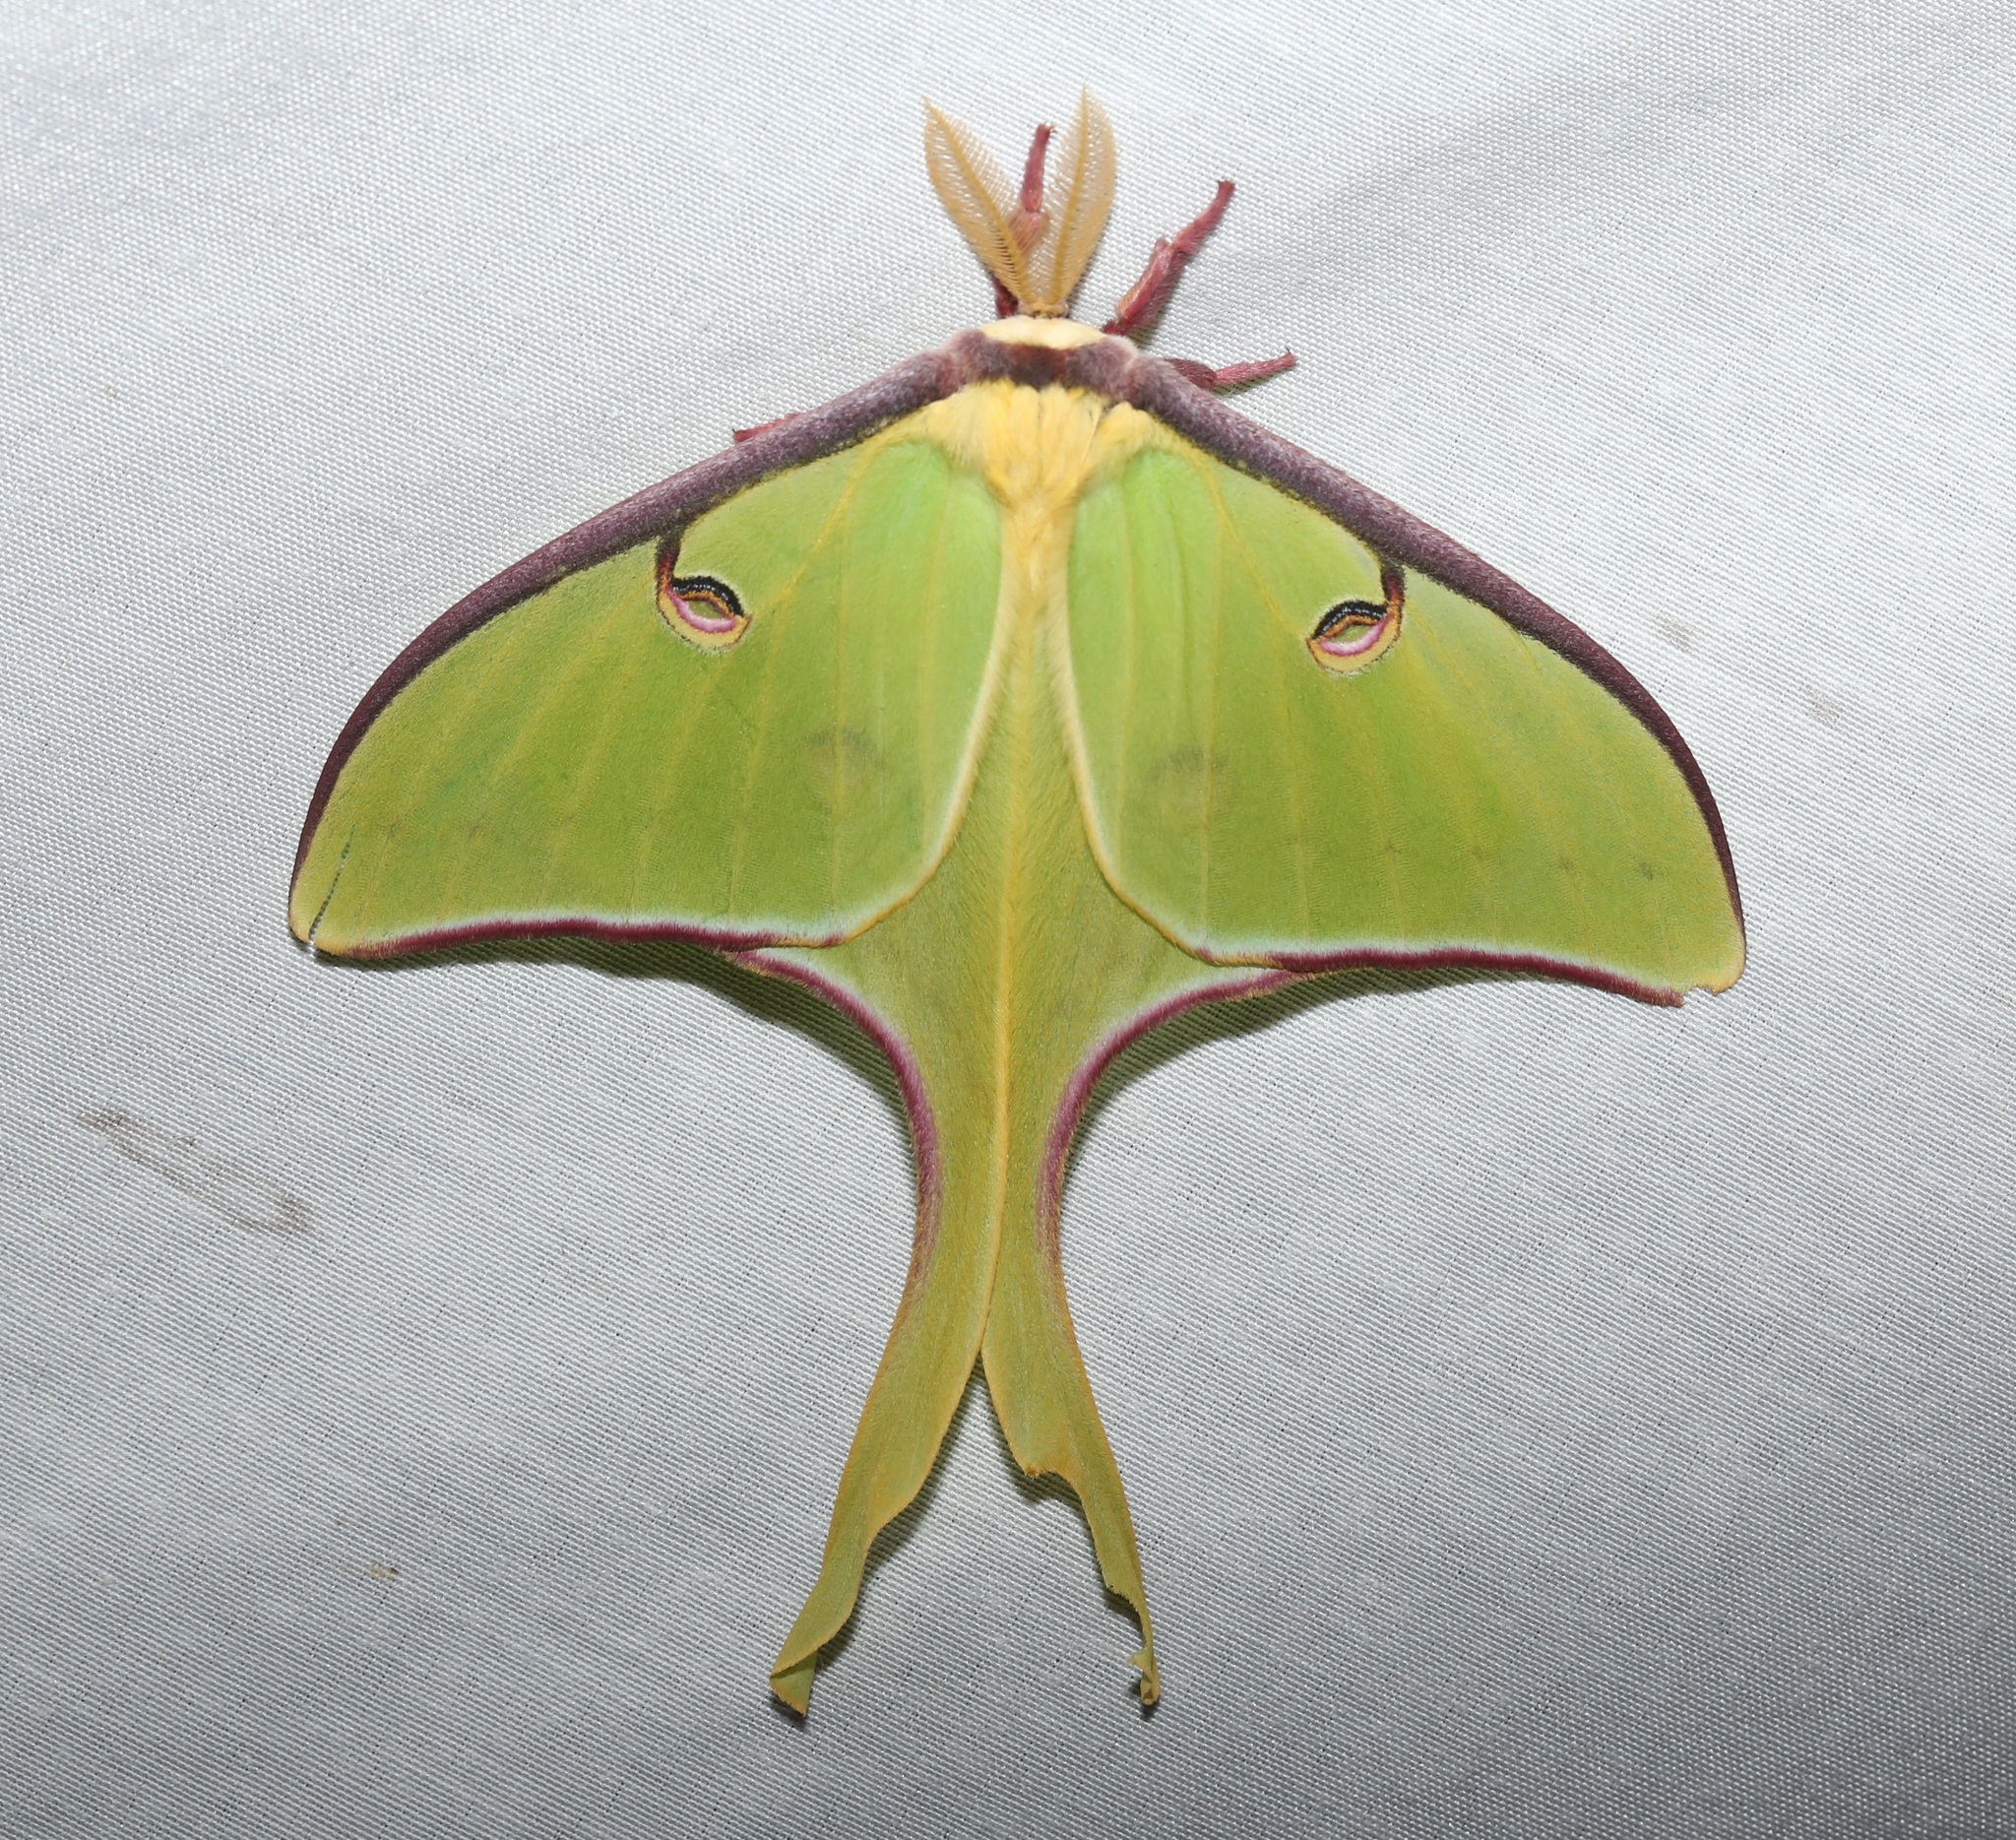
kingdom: Animalia
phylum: Arthropoda
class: Insecta
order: Lepidoptera
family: Saturniidae
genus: Actias
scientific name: Actias luna
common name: Luna moth
